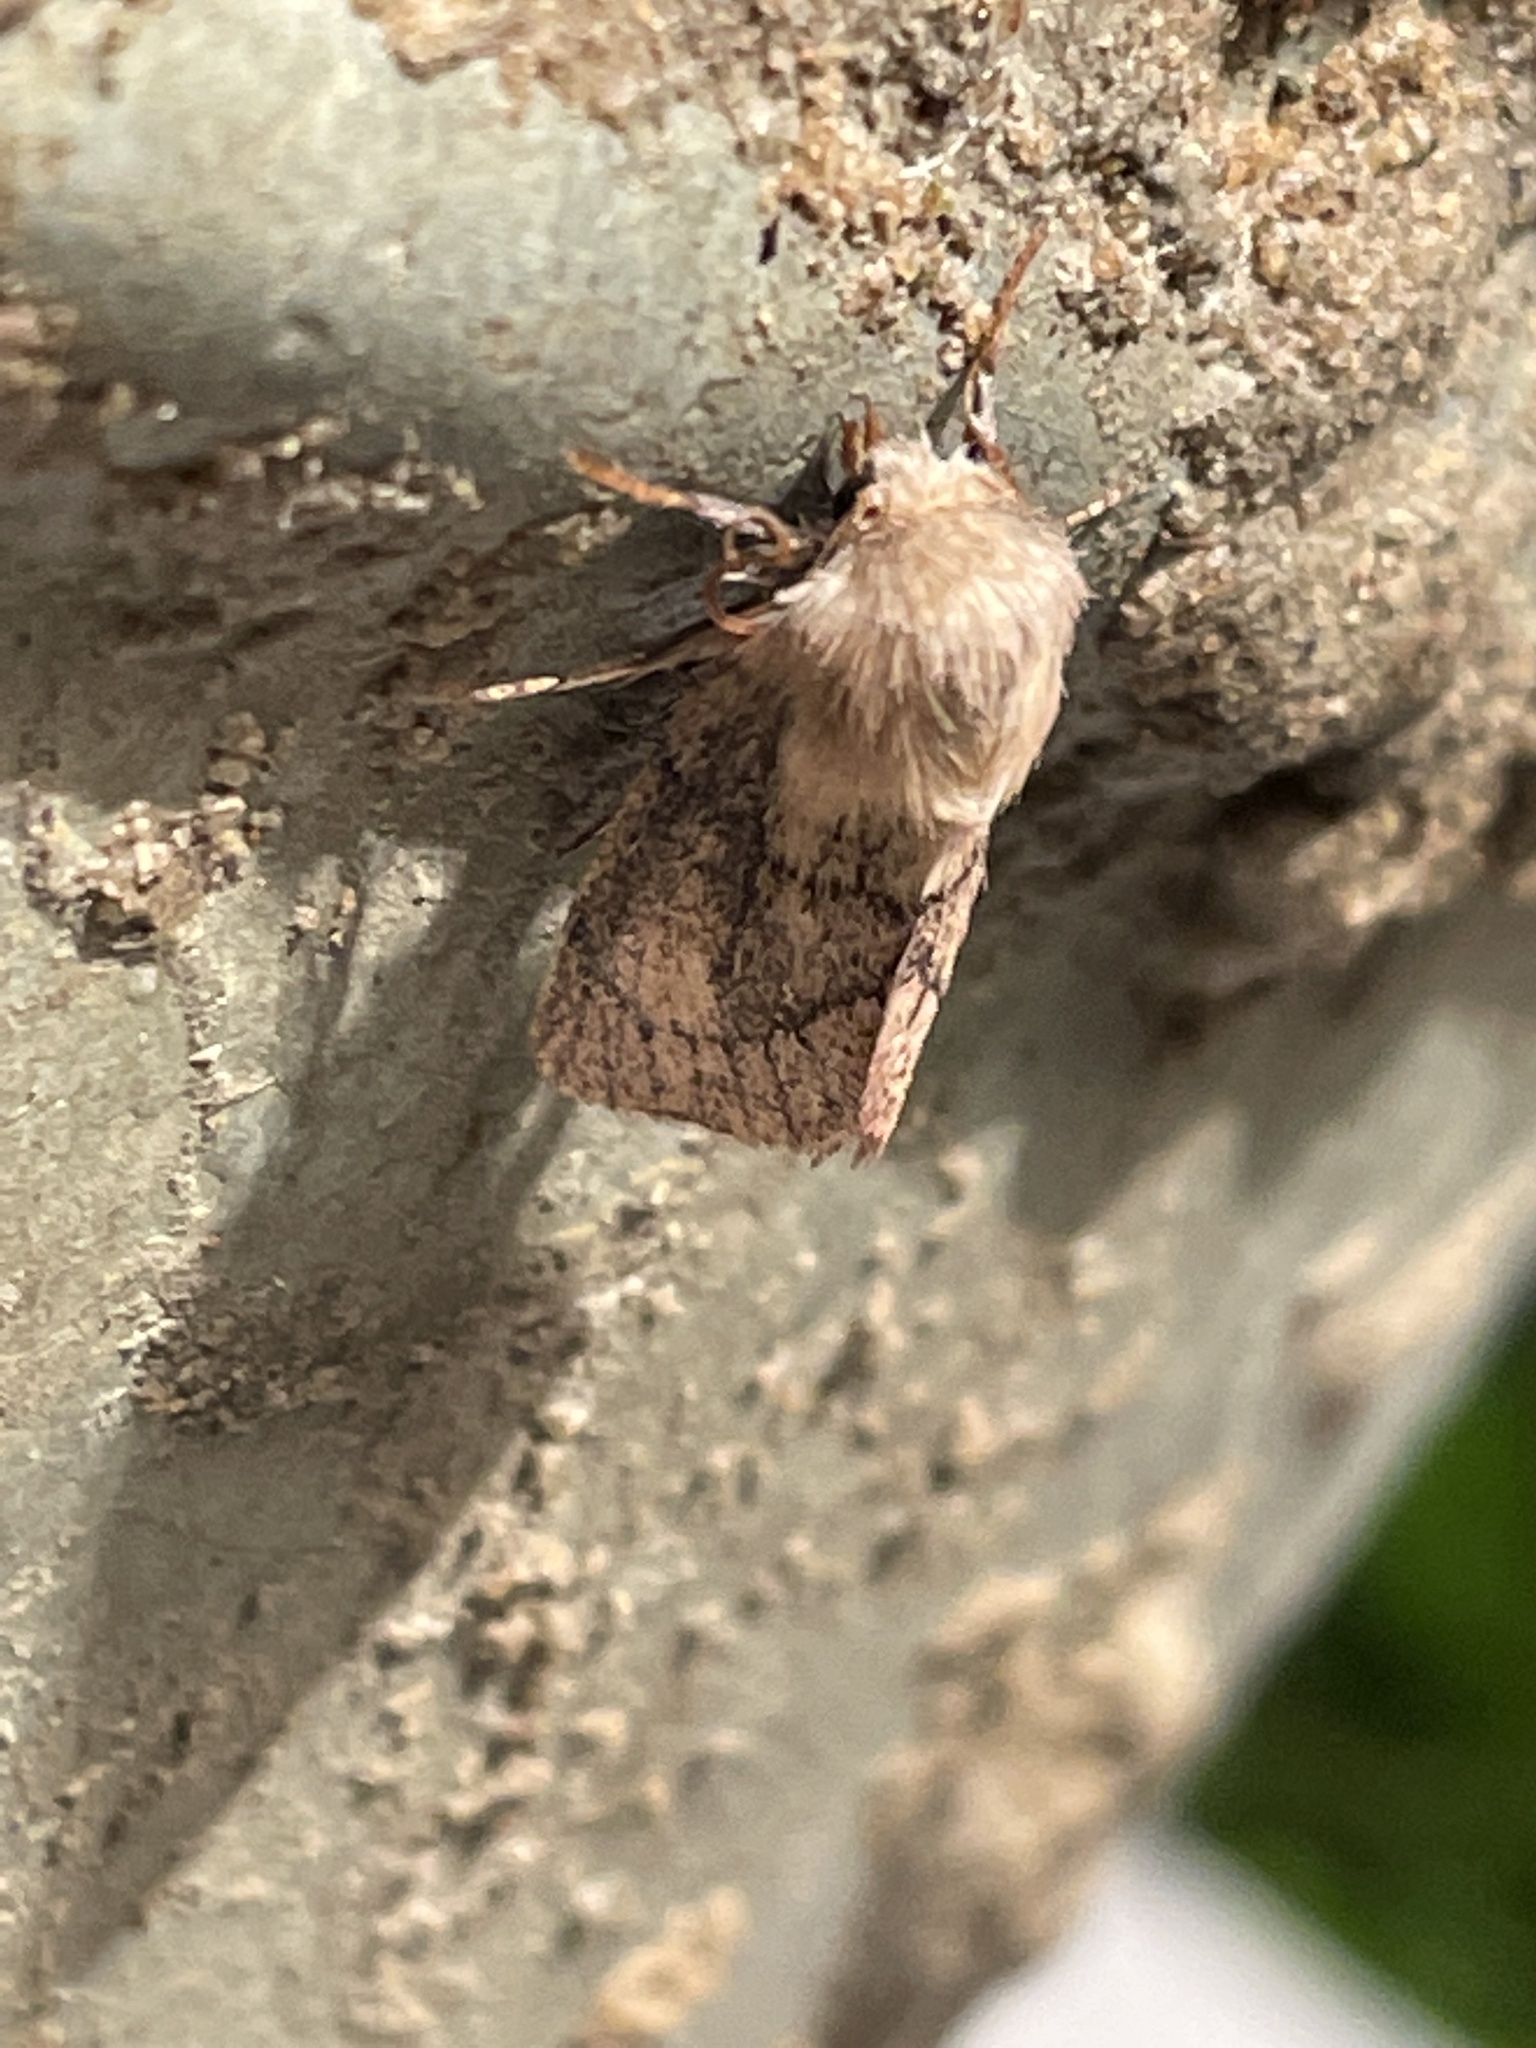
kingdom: Animalia
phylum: Arthropoda
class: Insecta
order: Lepidoptera
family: Noctuidae
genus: Denticucullus
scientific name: Denticucullus pygmina
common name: Small wainscot
